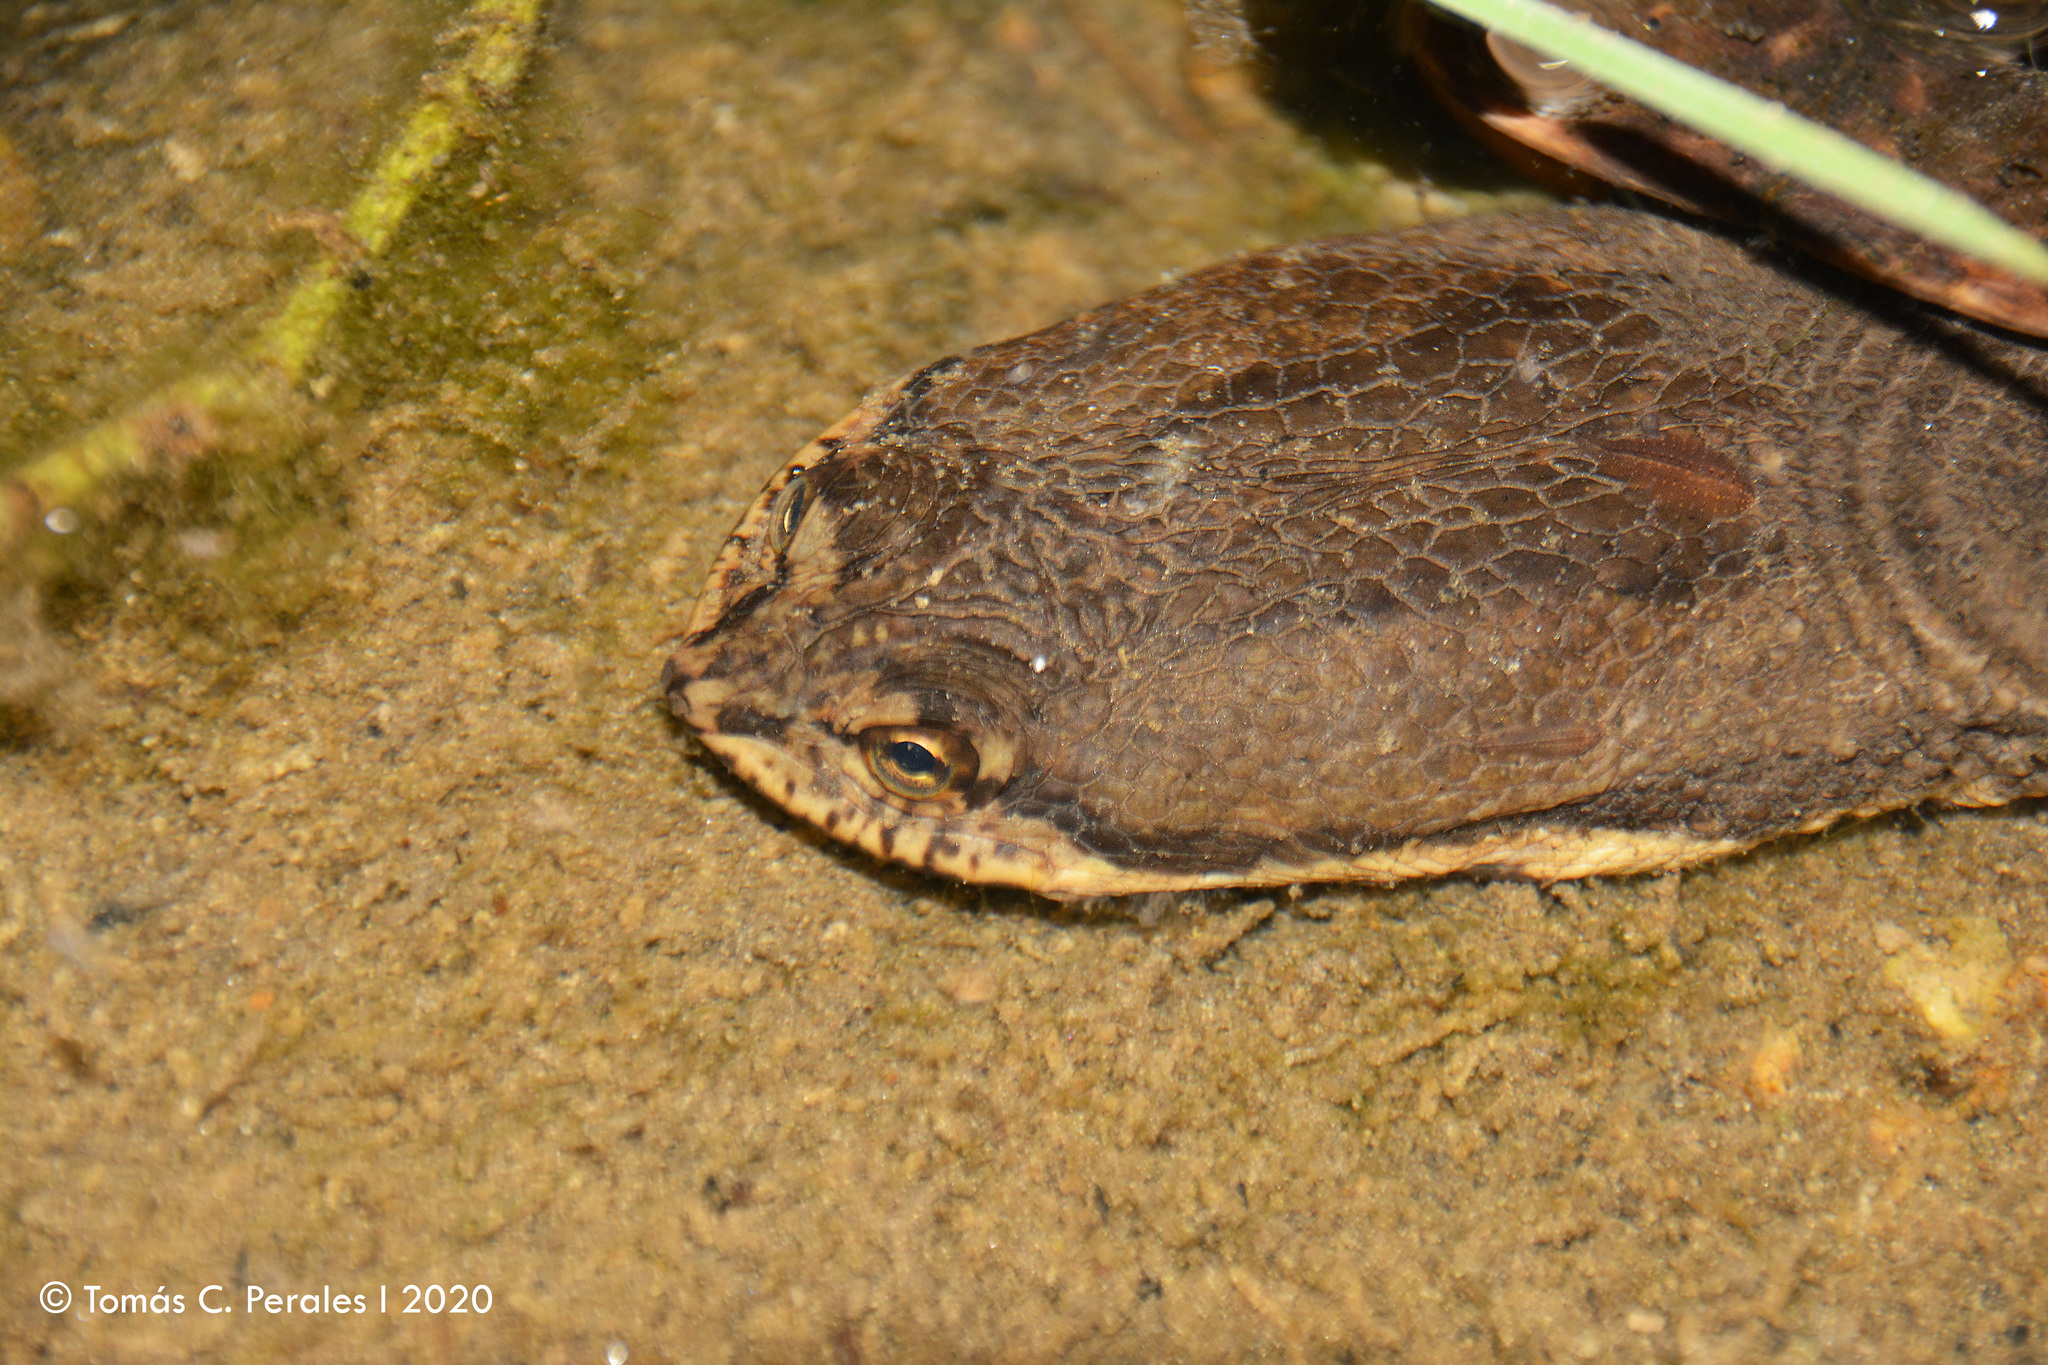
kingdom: Animalia
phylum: Chordata
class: Testudines
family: Chelidae
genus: Hydromedusa
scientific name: Hydromedusa tectifera
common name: Argentine snake-necked turtle
